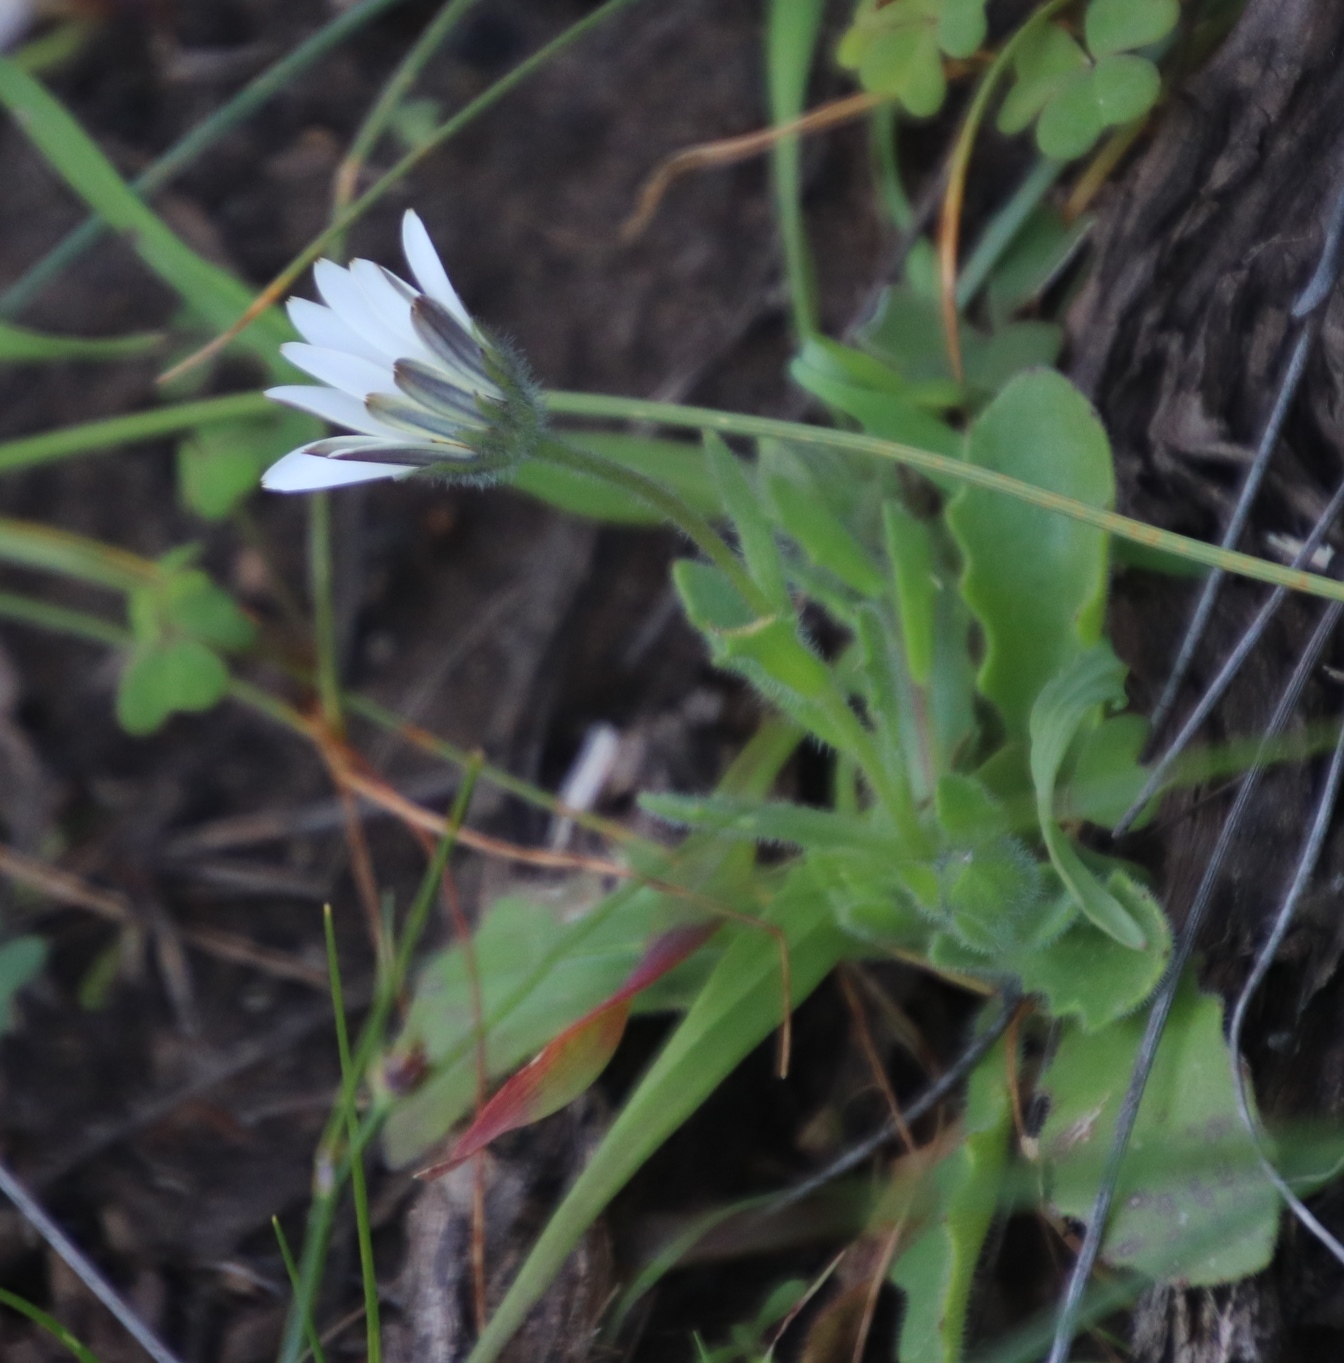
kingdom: Plantae
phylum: Tracheophyta
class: Magnoliopsida
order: Asterales
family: Asteraceae
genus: Dimorphotheca
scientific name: Dimorphotheca pluvialis
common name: Weather prophet
